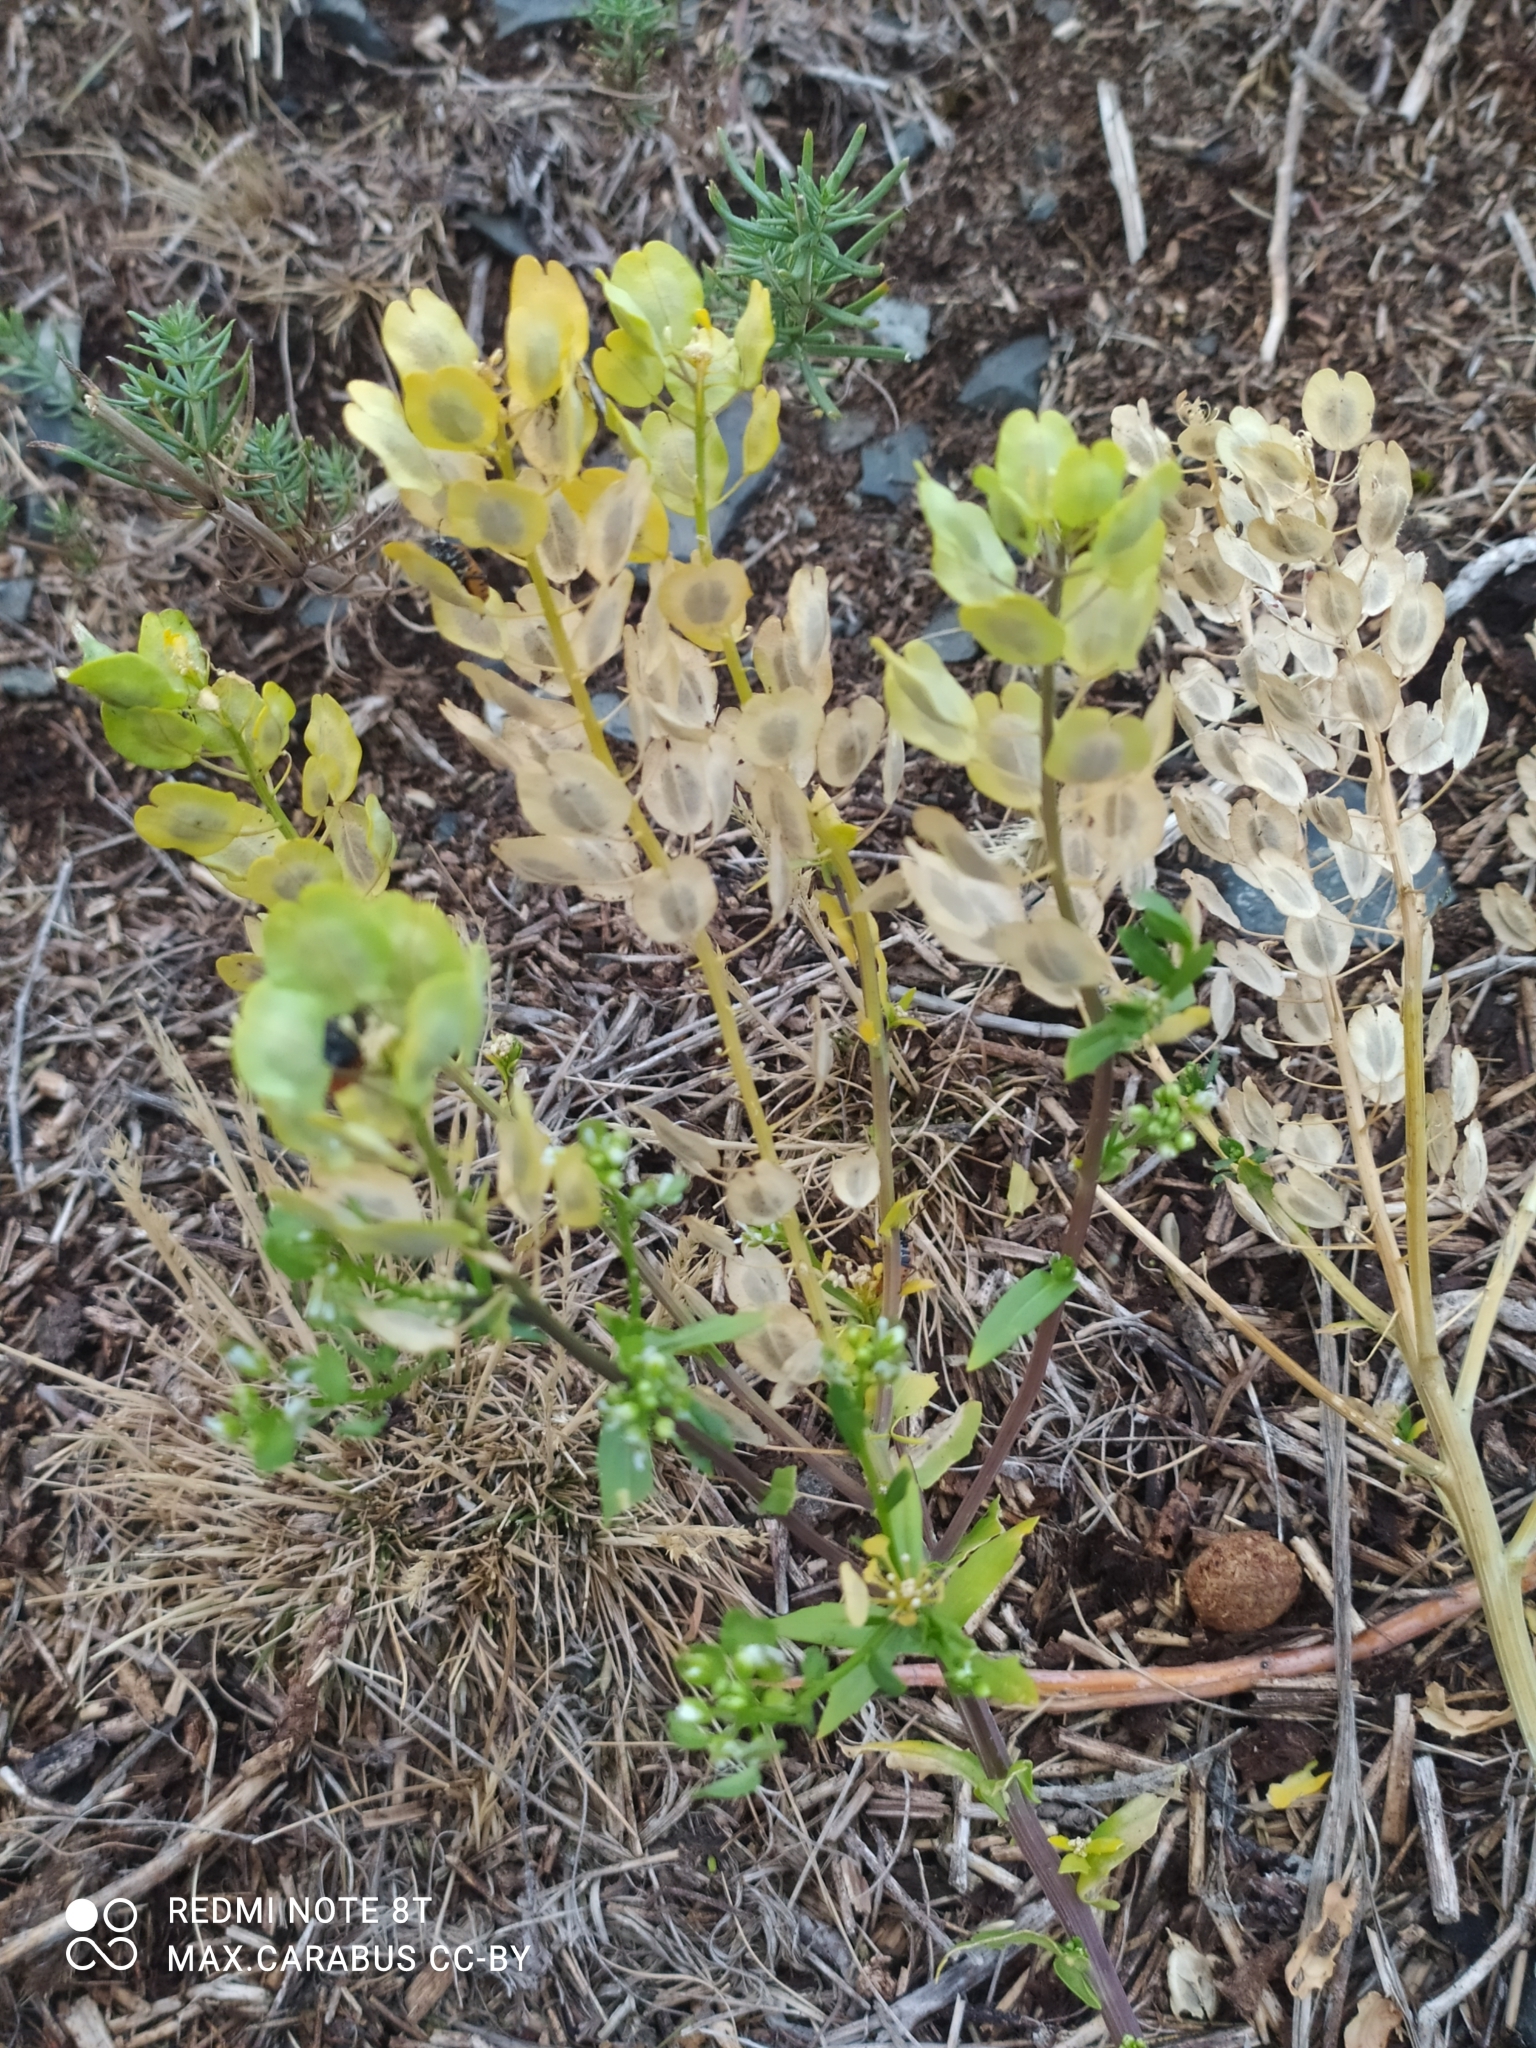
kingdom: Plantae
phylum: Tracheophyta
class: Magnoliopsida
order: Brassicales
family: Brassicaceae
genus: Thlaspi
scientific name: Thlaspi arvense
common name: Field pennycress
